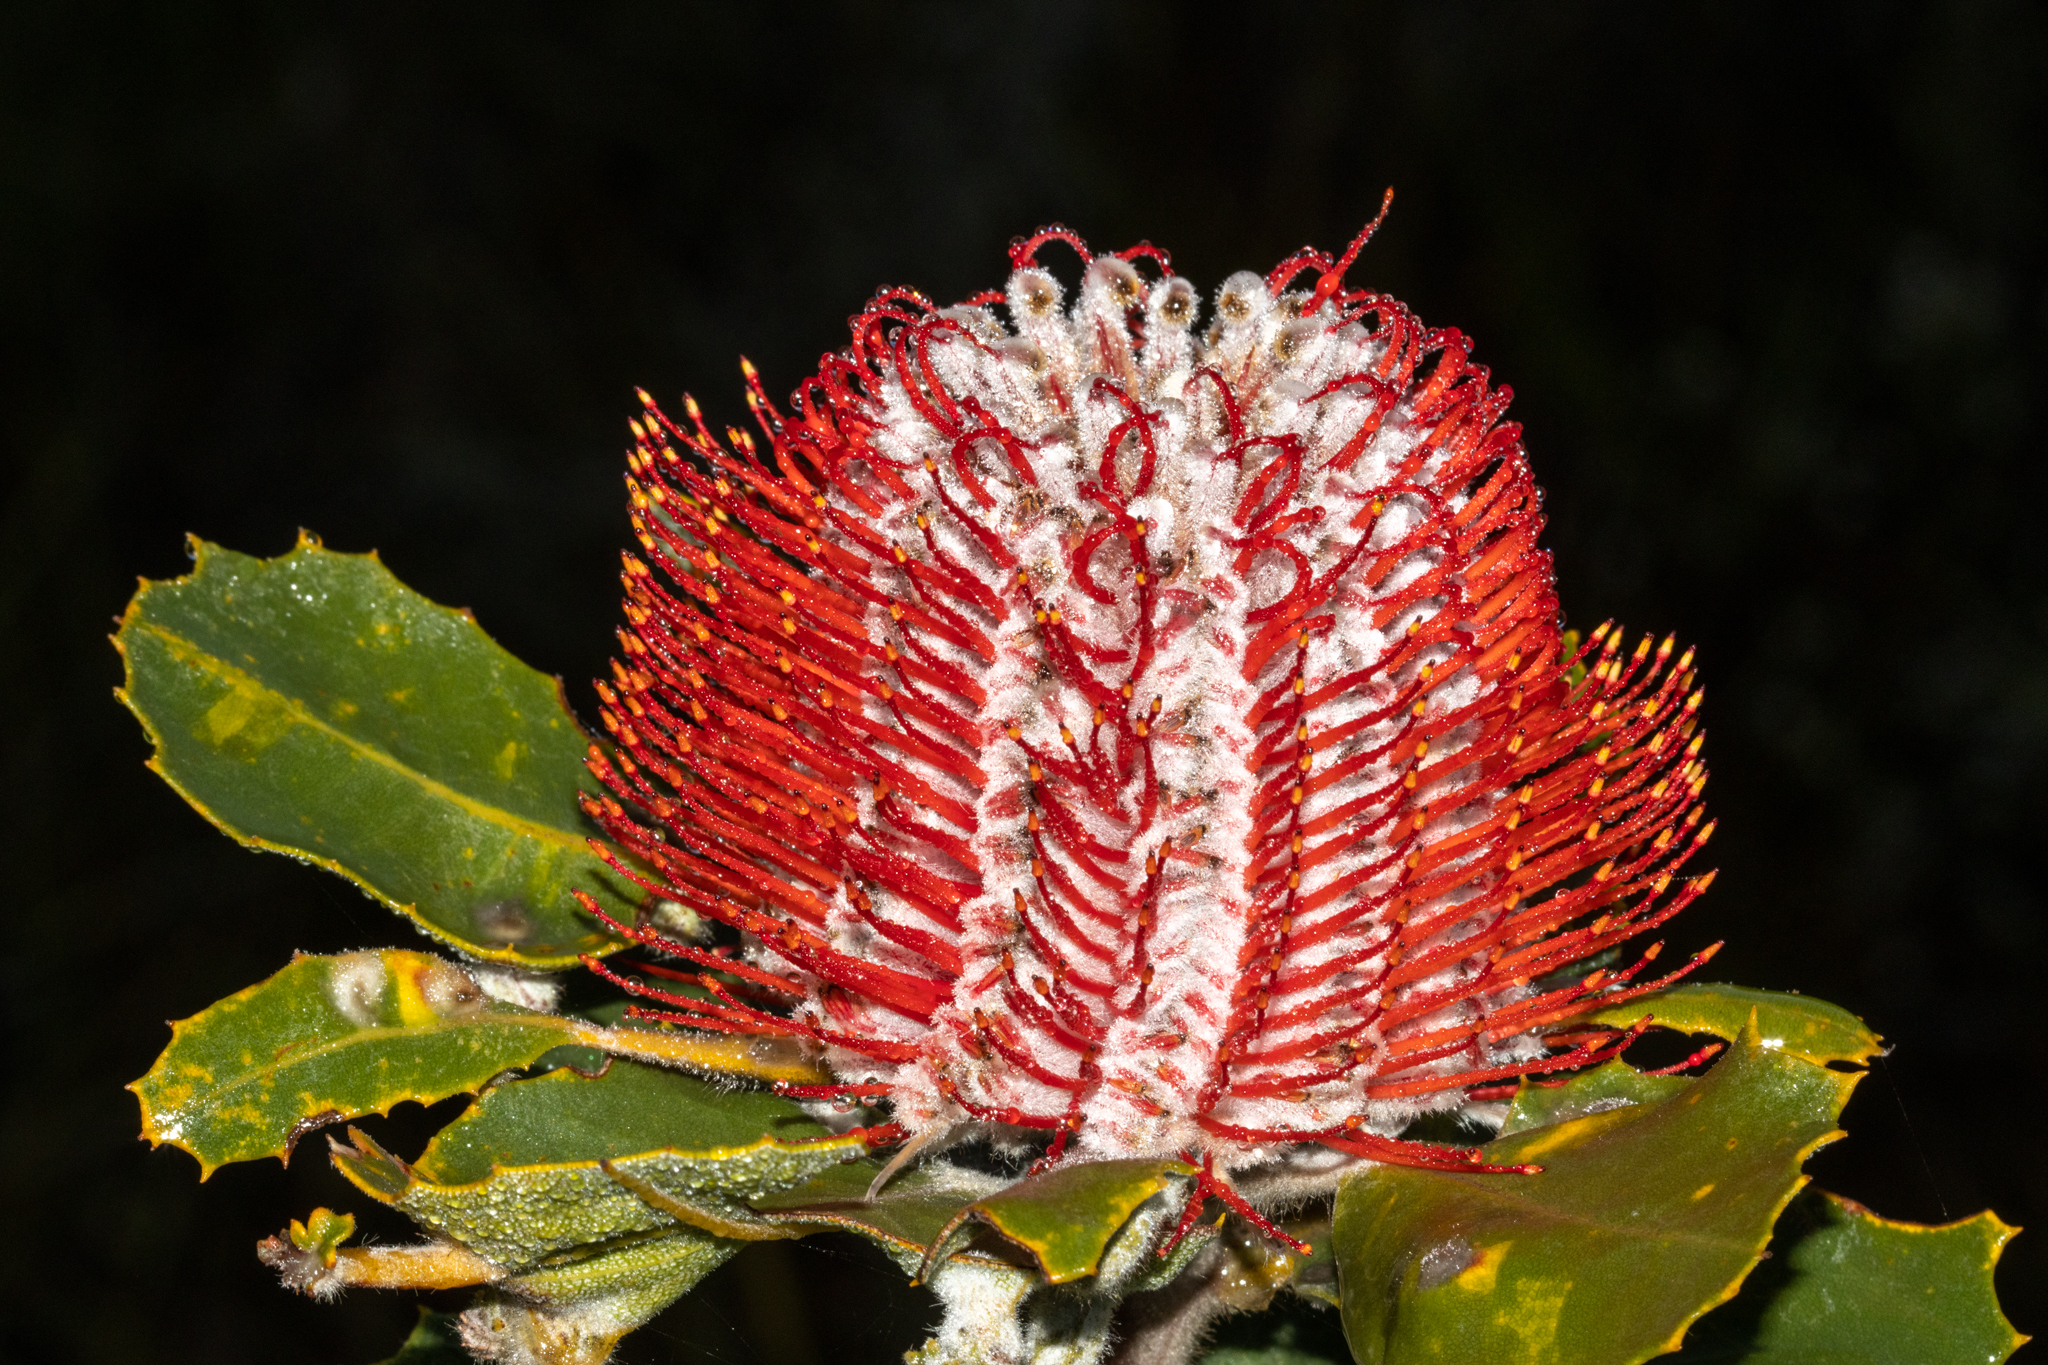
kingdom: Plantae
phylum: Tracheophyta
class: Magnoliopsida
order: Proteales
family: Proteaceae
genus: Banksia
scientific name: Banksia coccinea
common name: Scarlet banksia
